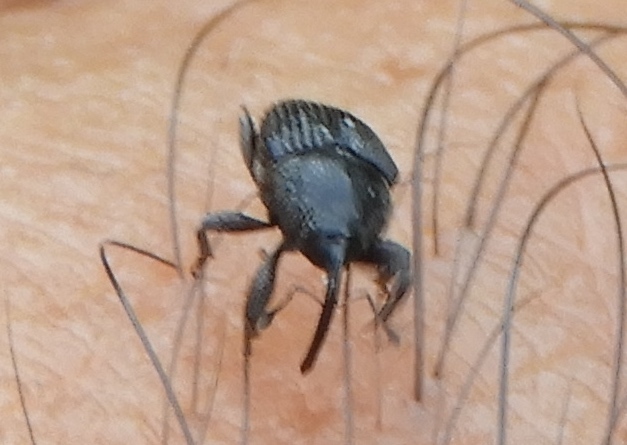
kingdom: Animalia
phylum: Arthropoda
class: Insecta
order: Coleoptera
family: Curculionidae
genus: Baridinae
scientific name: Baridinae
